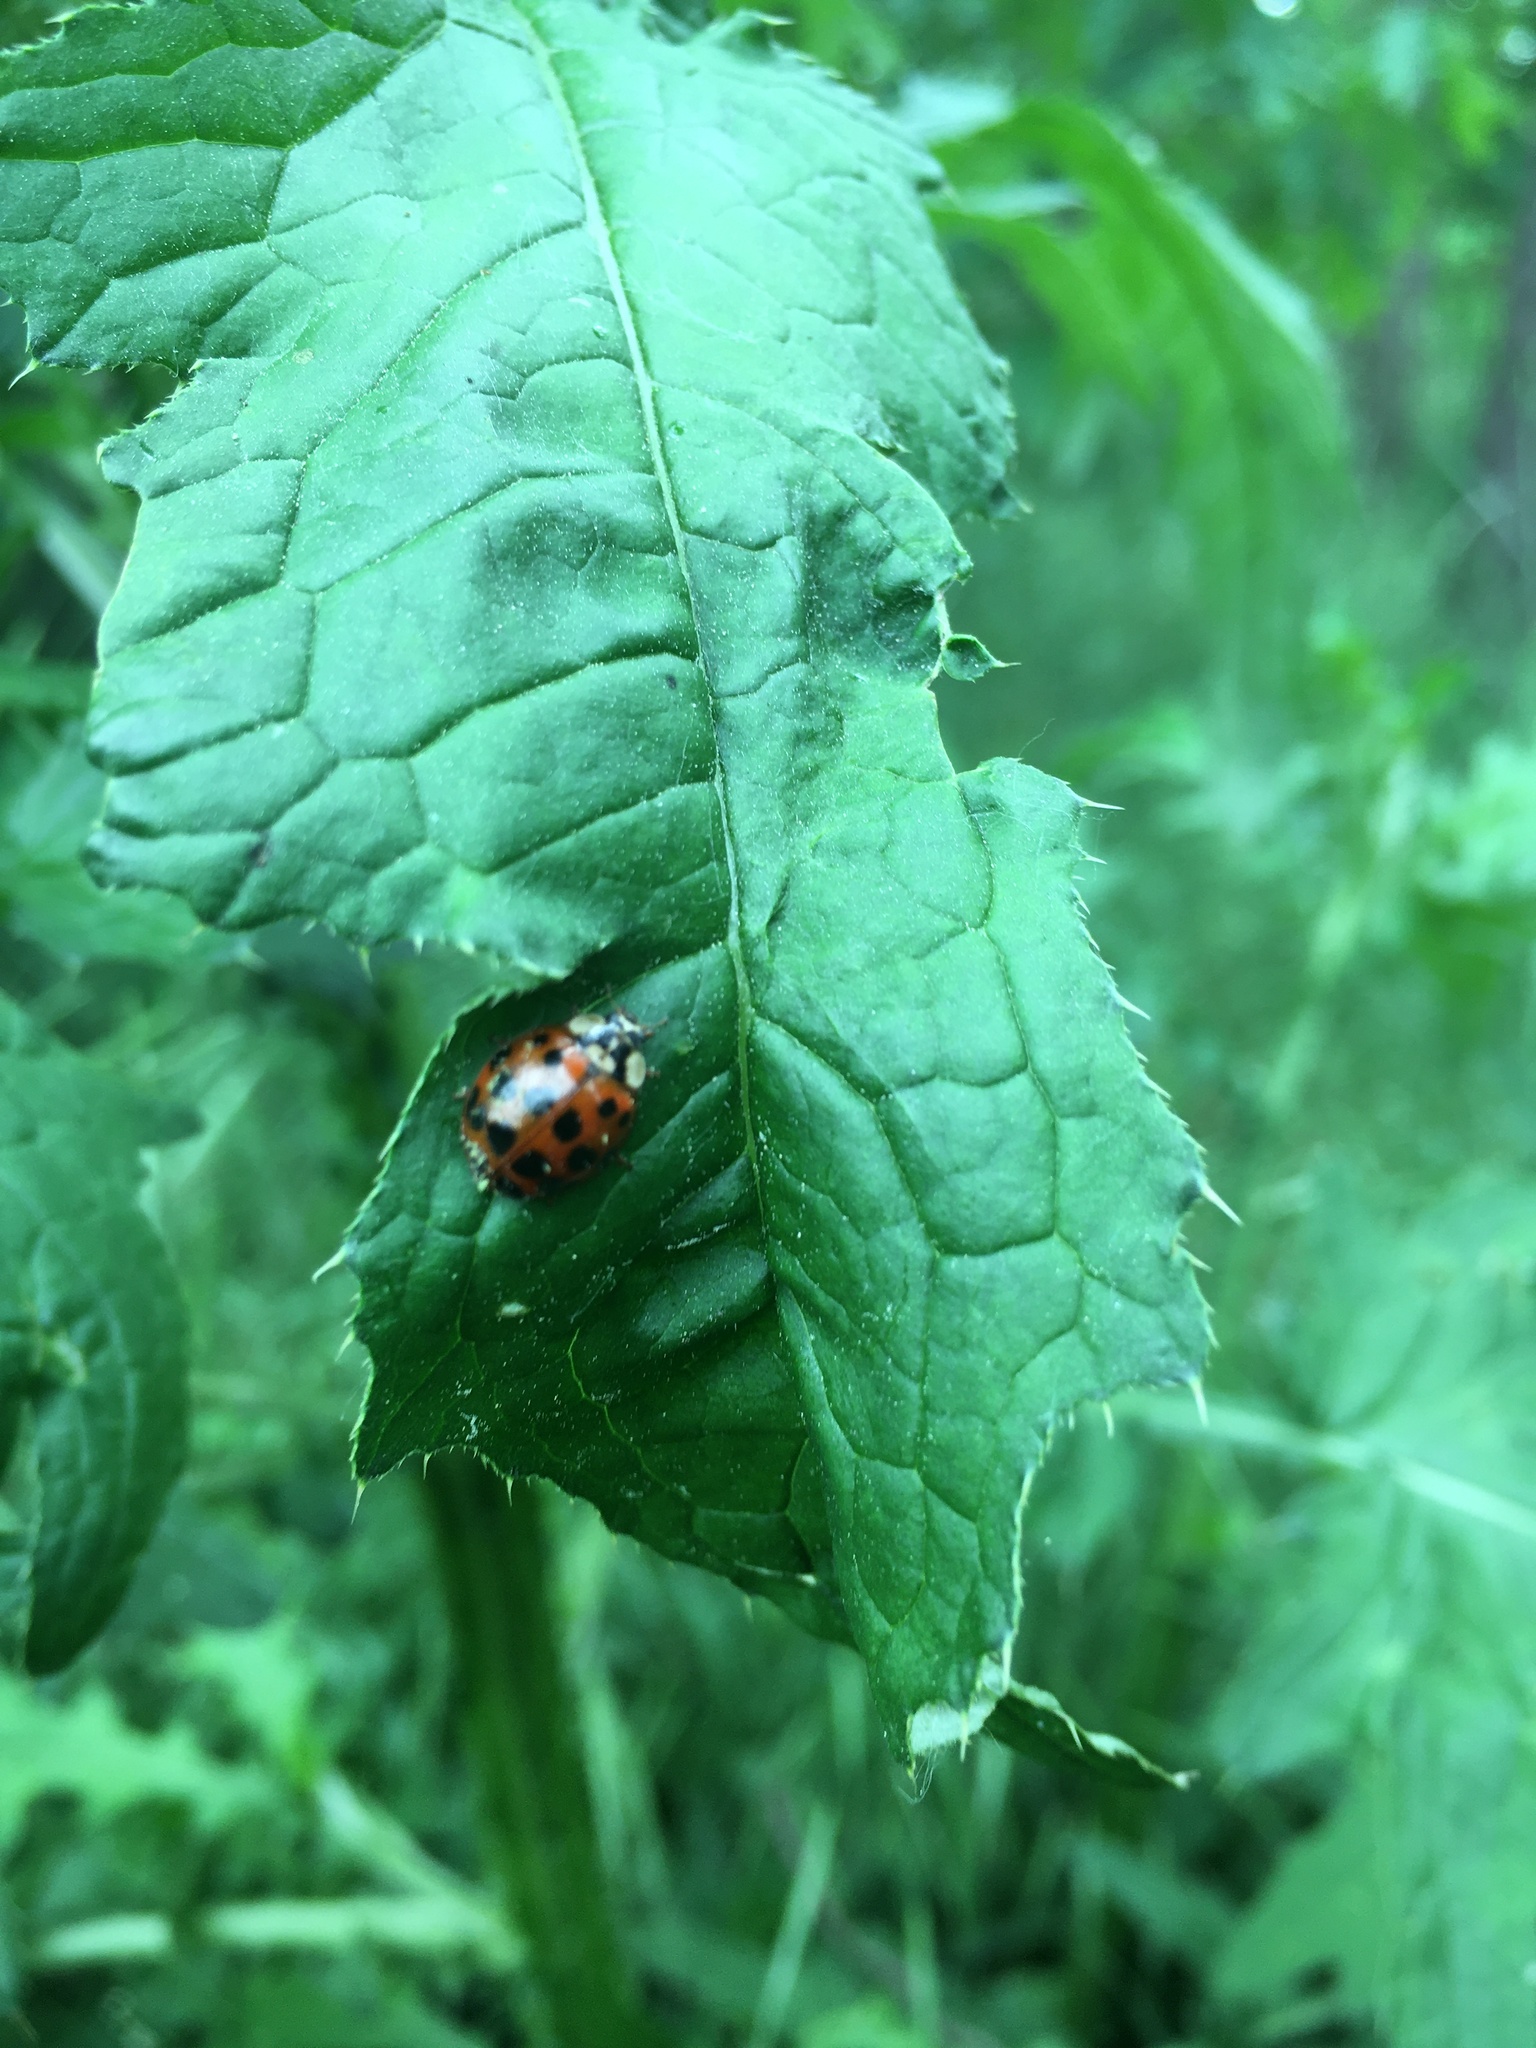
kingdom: Animalia
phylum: Arthropoda
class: Insecta
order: Coleoptera
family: Coccinellidae
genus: Harmonia
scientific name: Harmonia axyridis
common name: Harlequin ladybird
